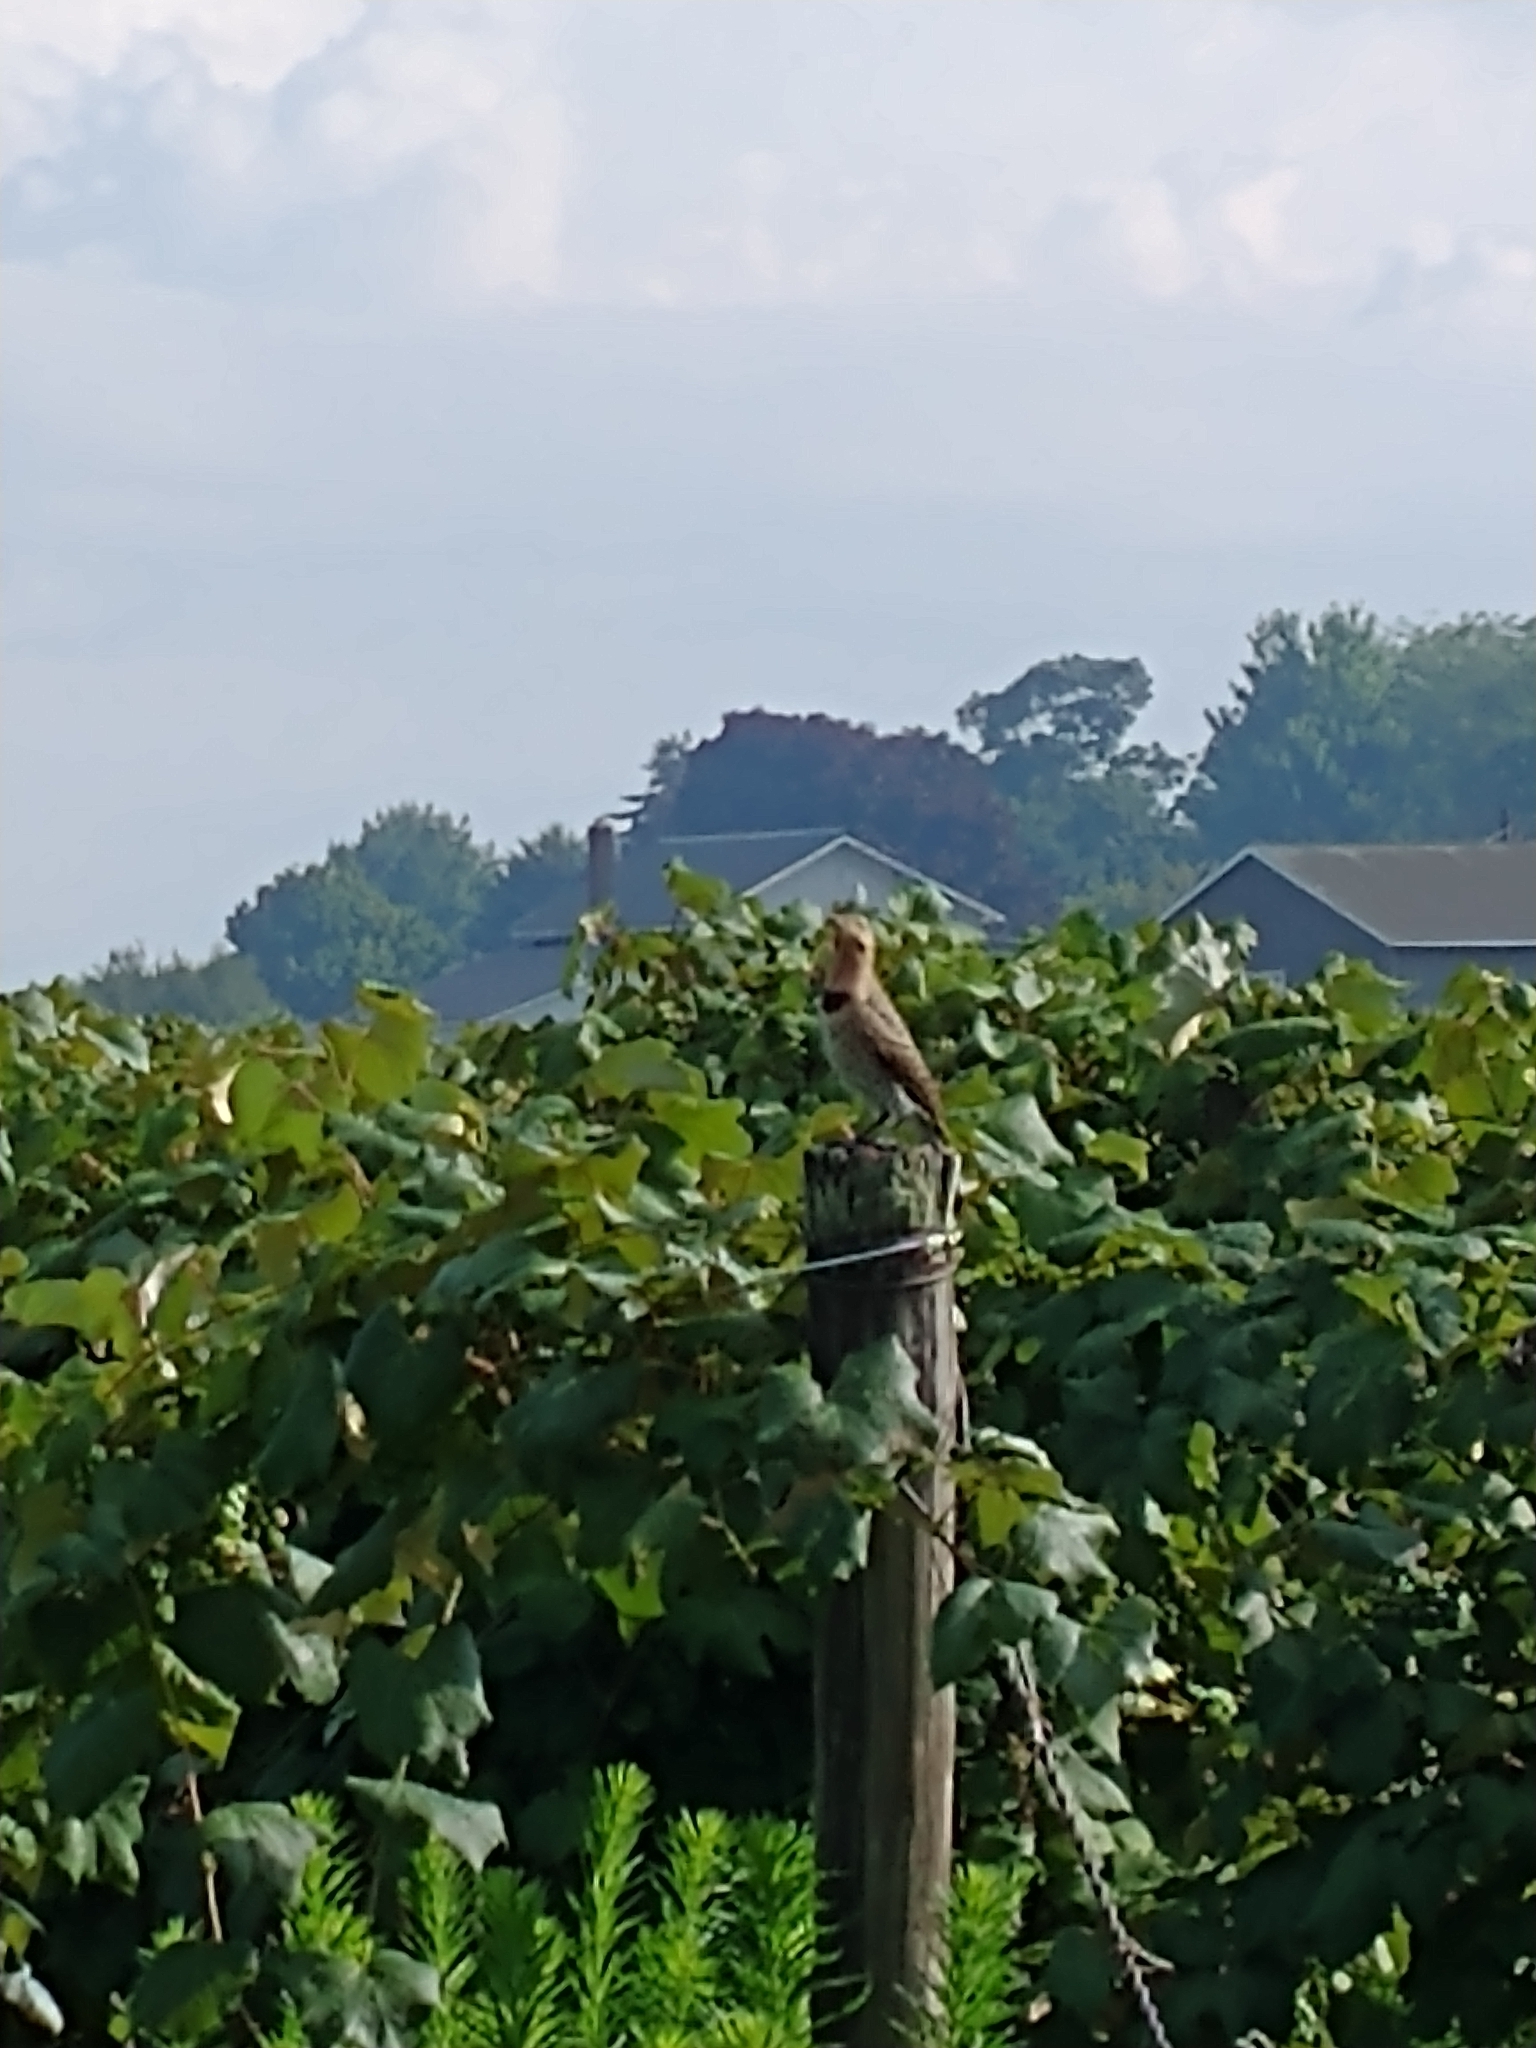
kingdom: Animalia
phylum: Chordata
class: Aves
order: Piciformes
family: Picidae
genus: Colaptes
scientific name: Colaptes auratus
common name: Northern flicker
